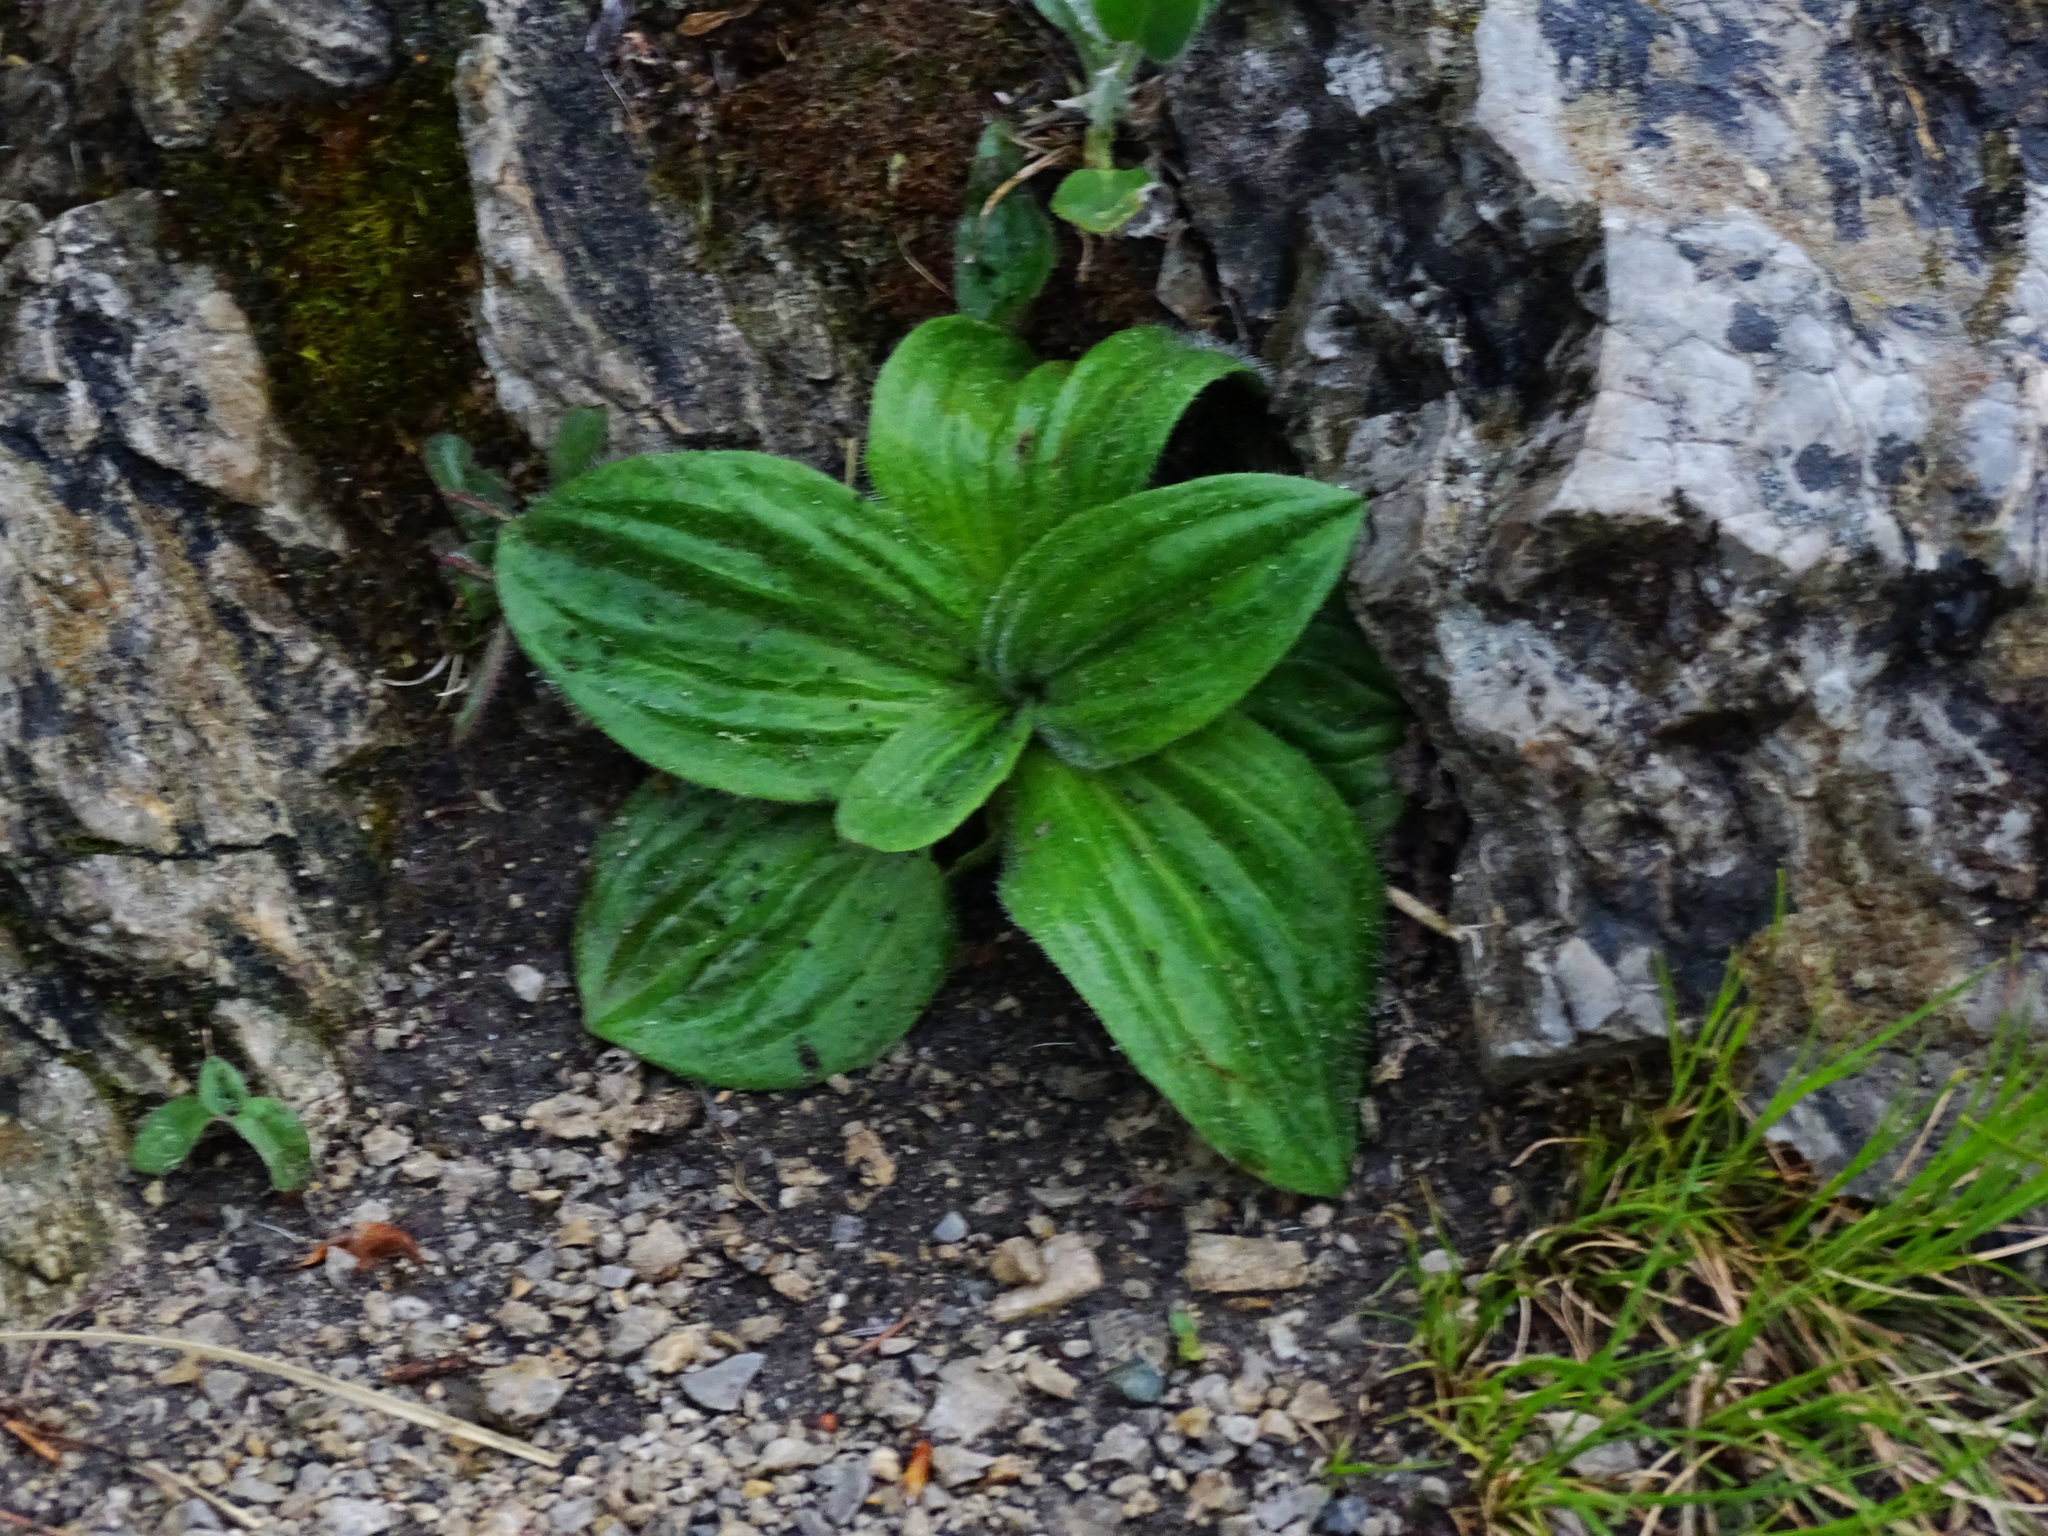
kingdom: Plantae
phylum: Tracheophyta
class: Magnoliopsida
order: Lamiales
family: Plantaginaceae
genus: Plantago
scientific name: Plantago media
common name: Hoary plantain
